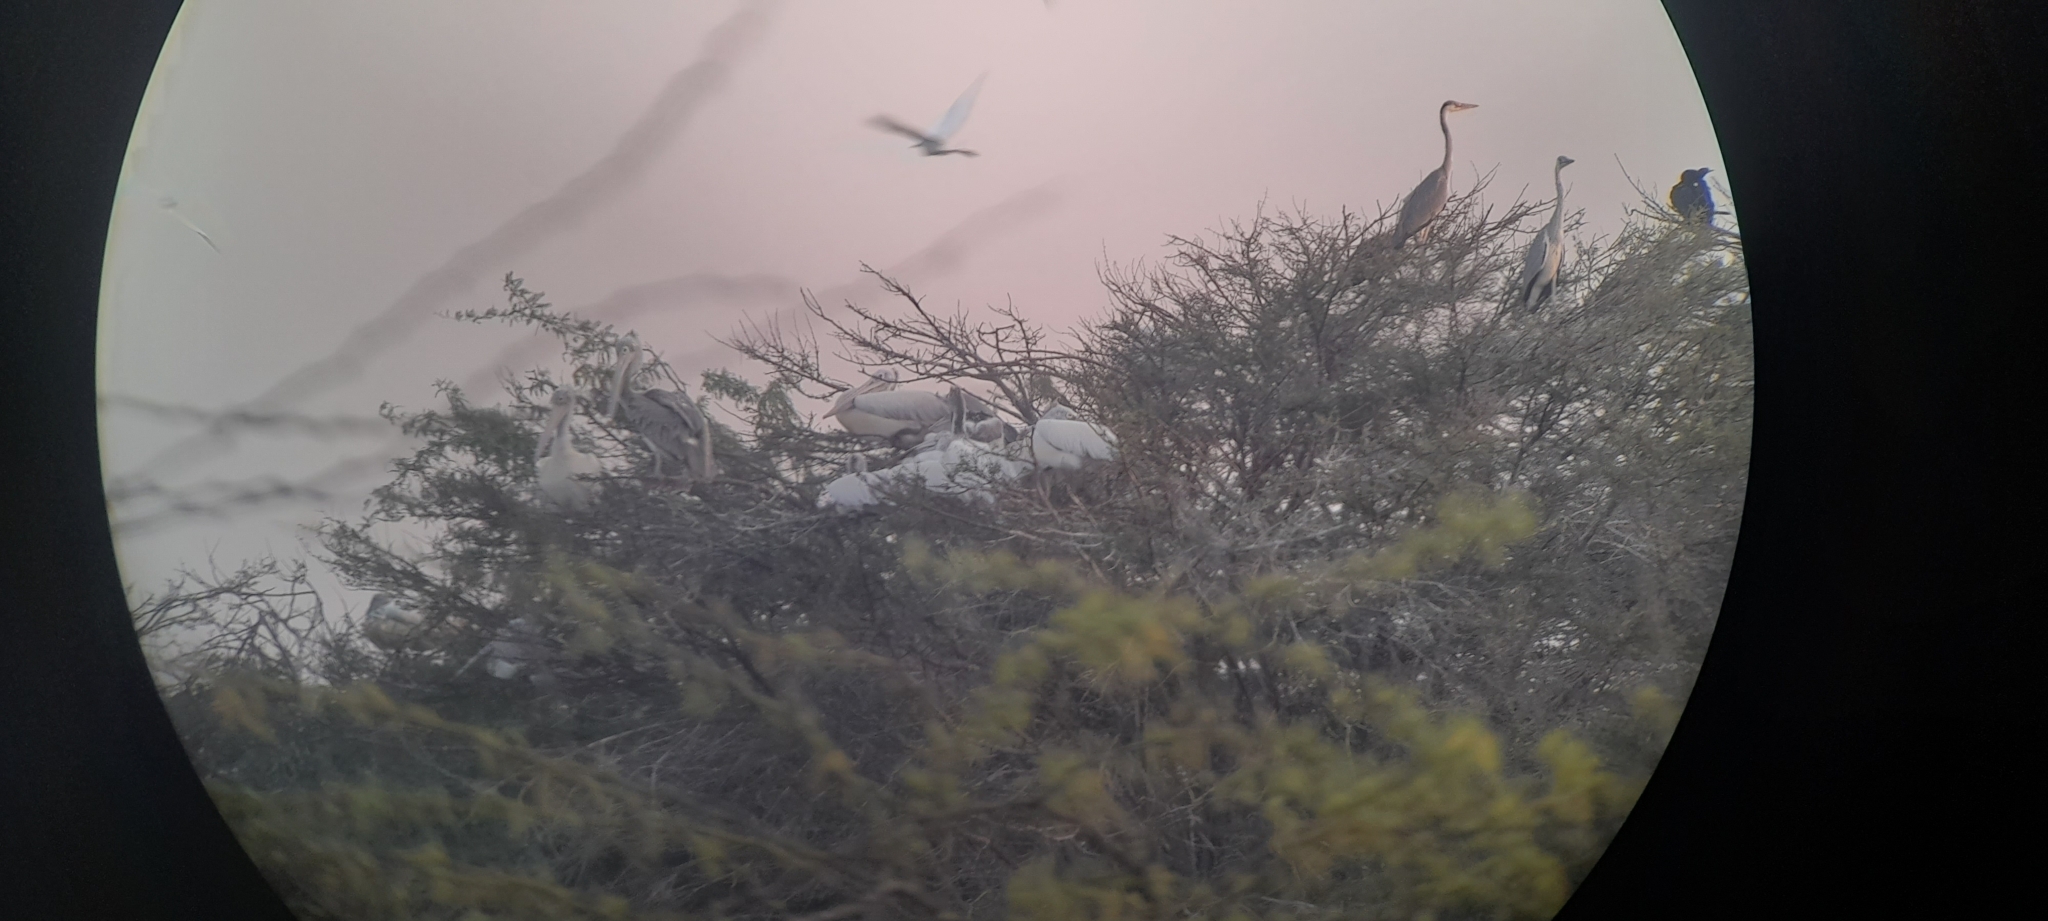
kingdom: Animalia
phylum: Chordata
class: Aves
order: Pelecaniformes
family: Ardeidae
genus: Ardea
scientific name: Ardea cinerea
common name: Grey heron
